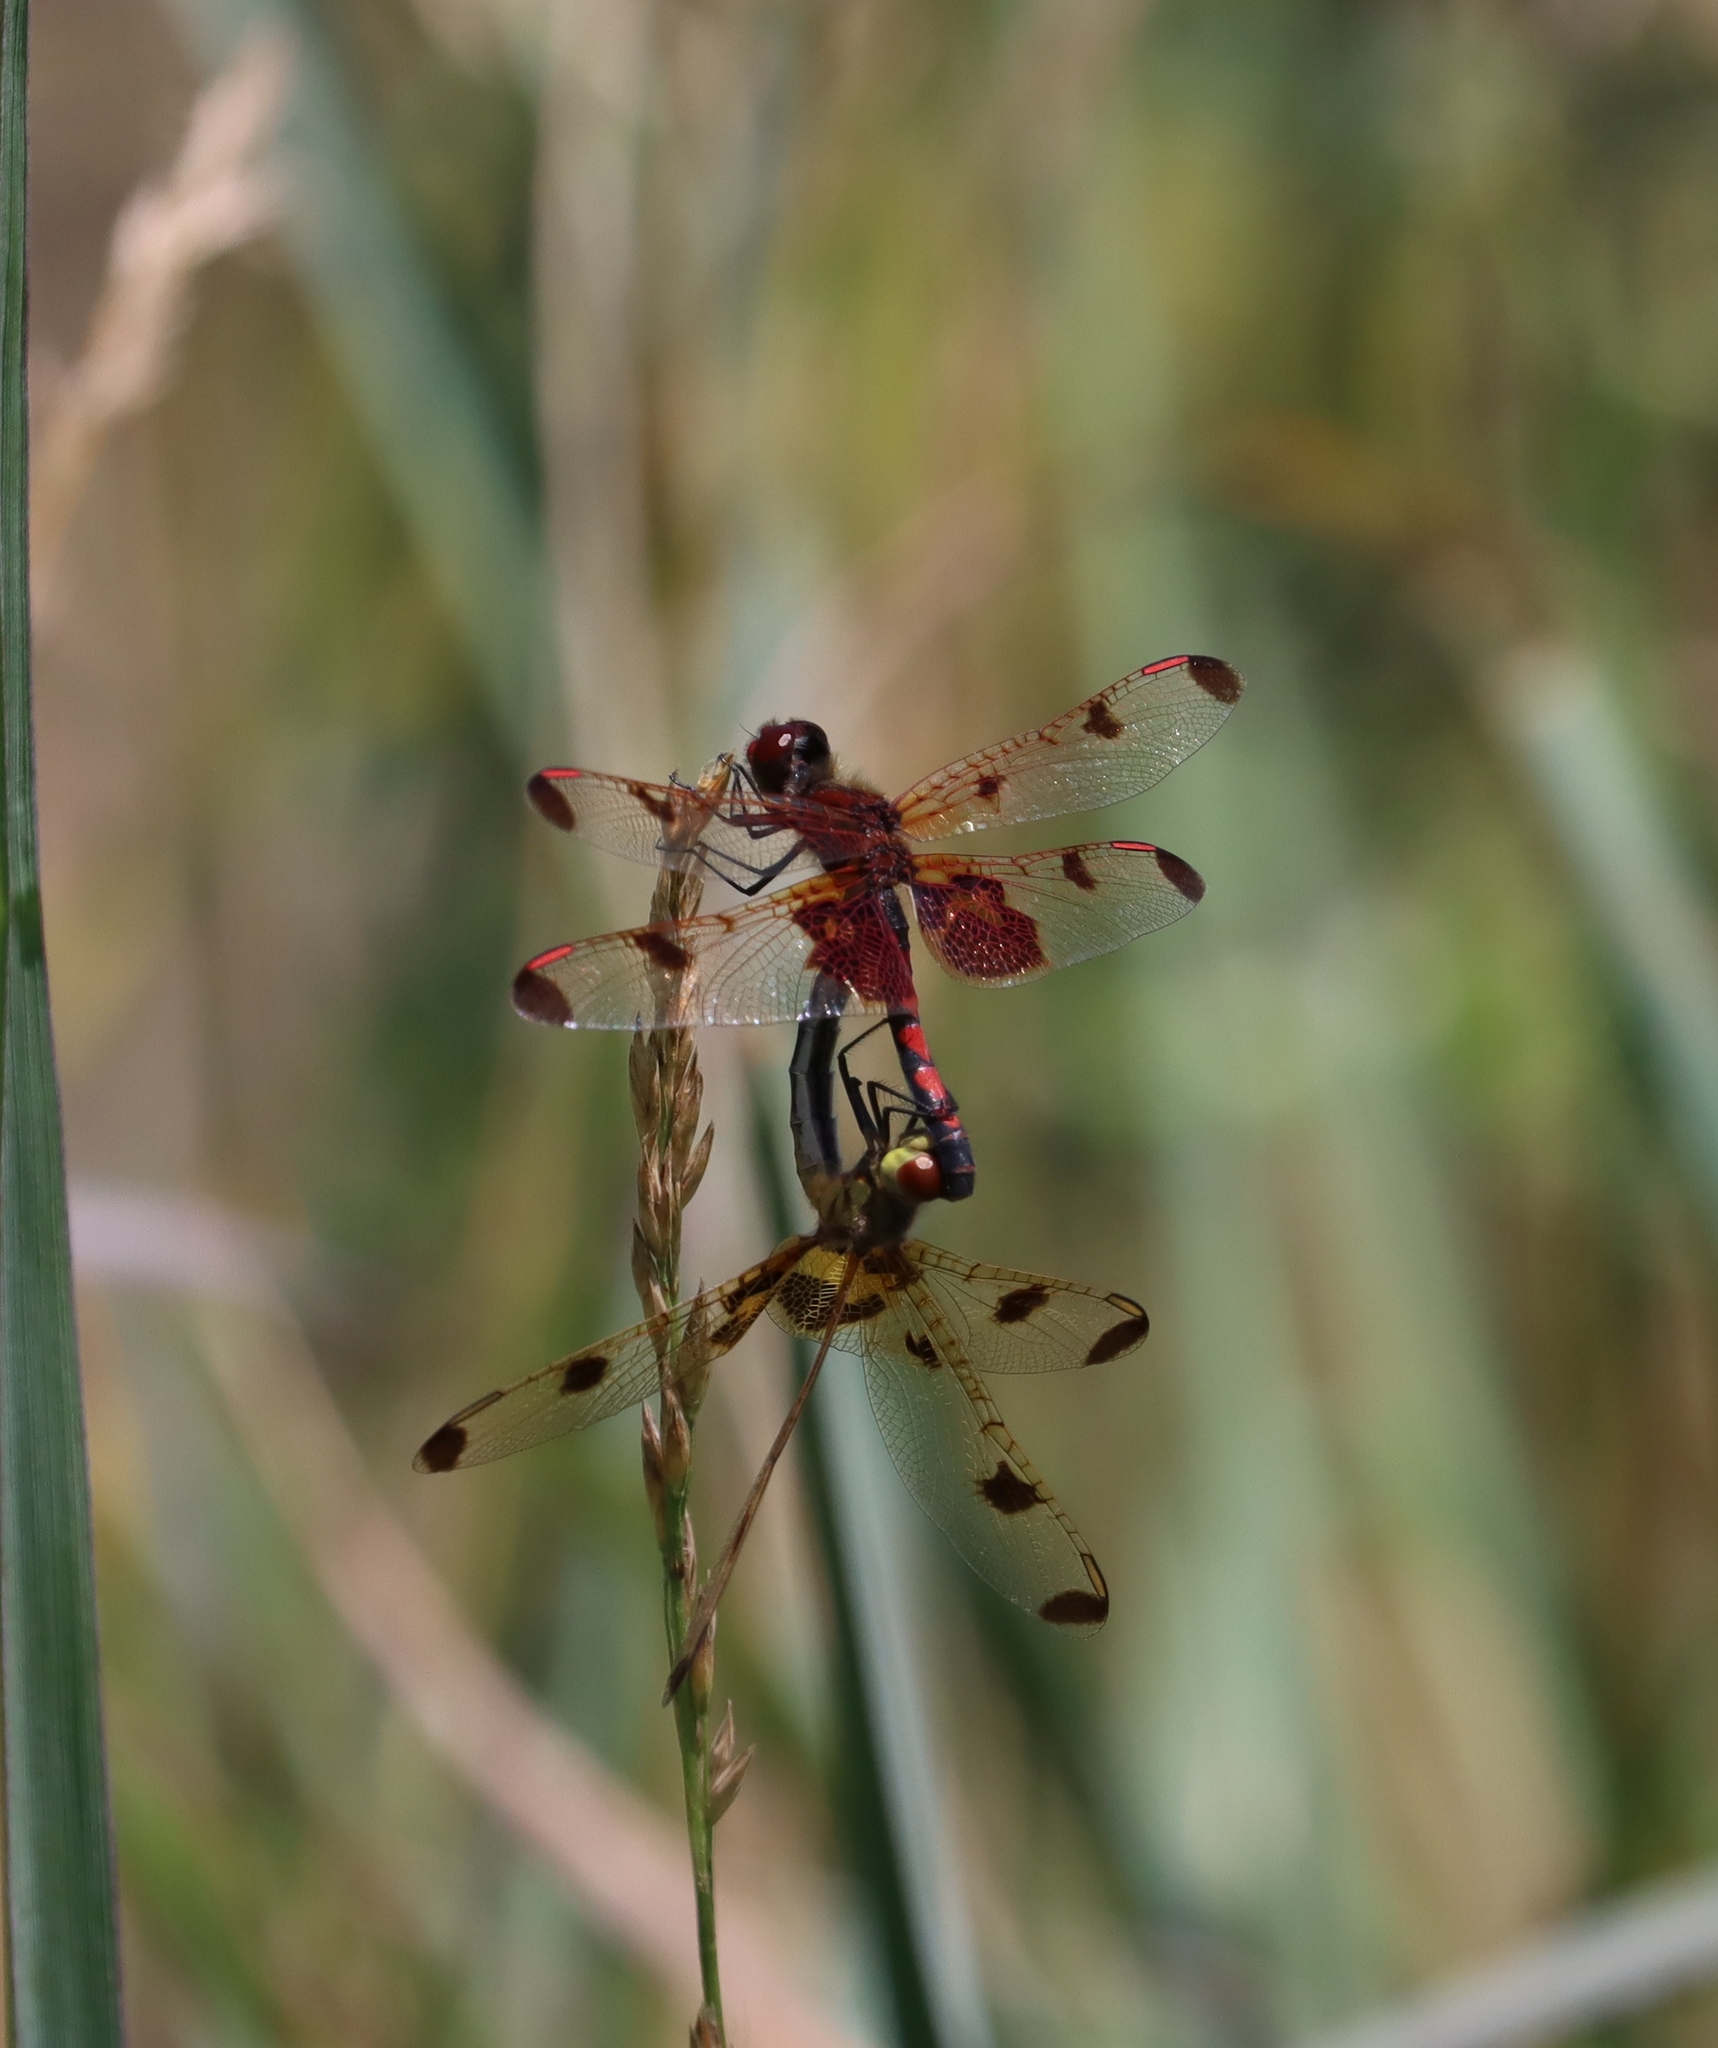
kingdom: Animalia
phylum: Arthropoda
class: Insecta
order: Odonata
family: Libellulidae
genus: Celithemis
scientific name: Celithemis elisa
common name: Calico pennant
